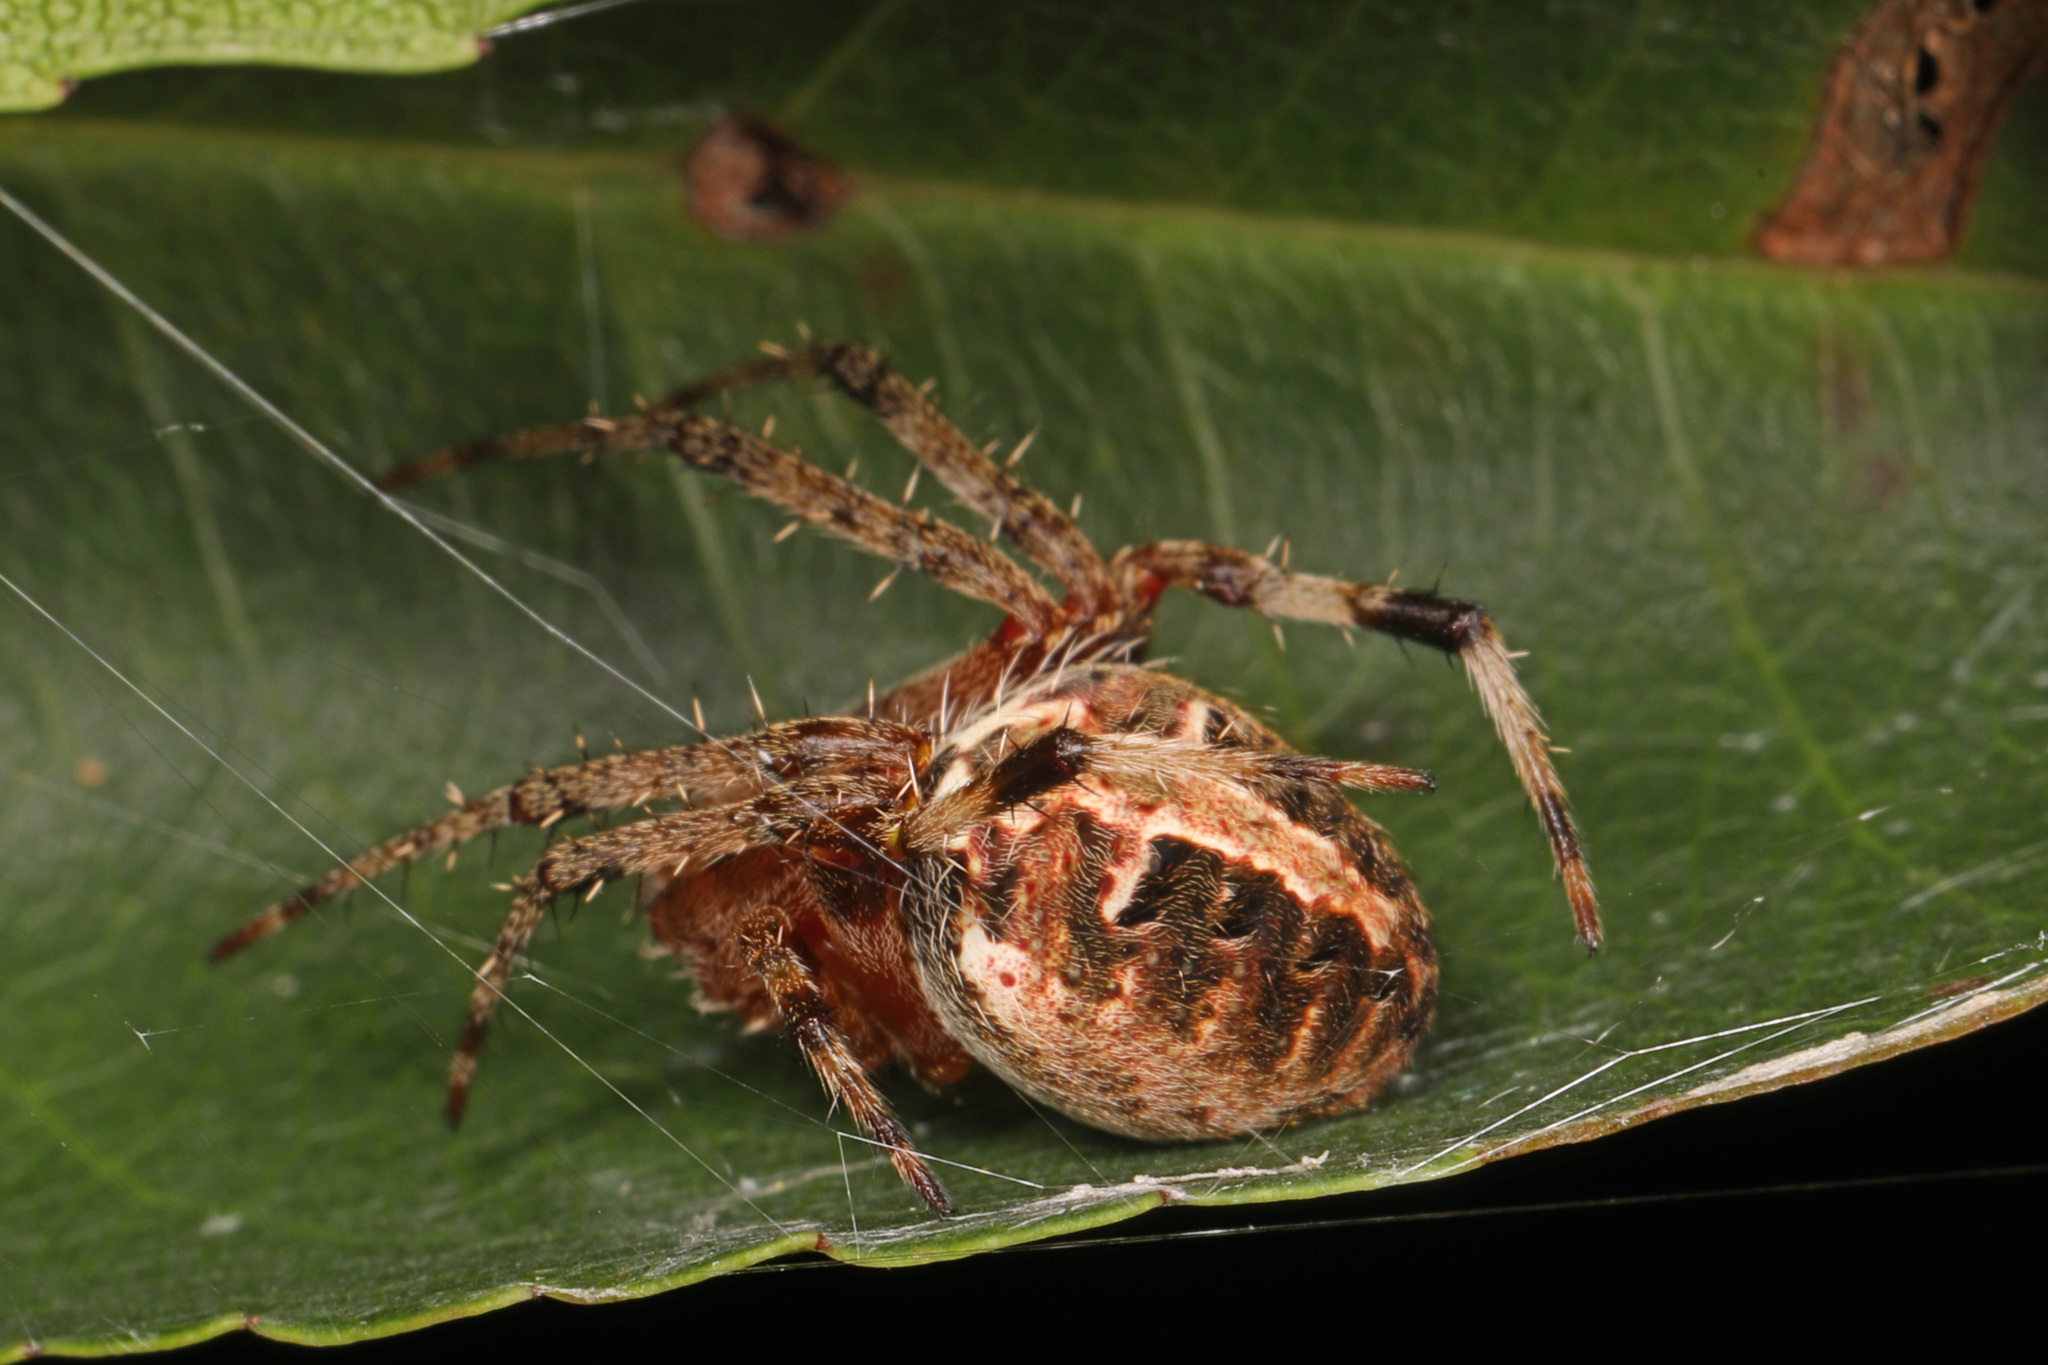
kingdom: Animalia
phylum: Arthropoda
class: Arachnida
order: Araneae
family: Araneidae
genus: Neoscona
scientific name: Neoscona arabesca
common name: Orb weavers
